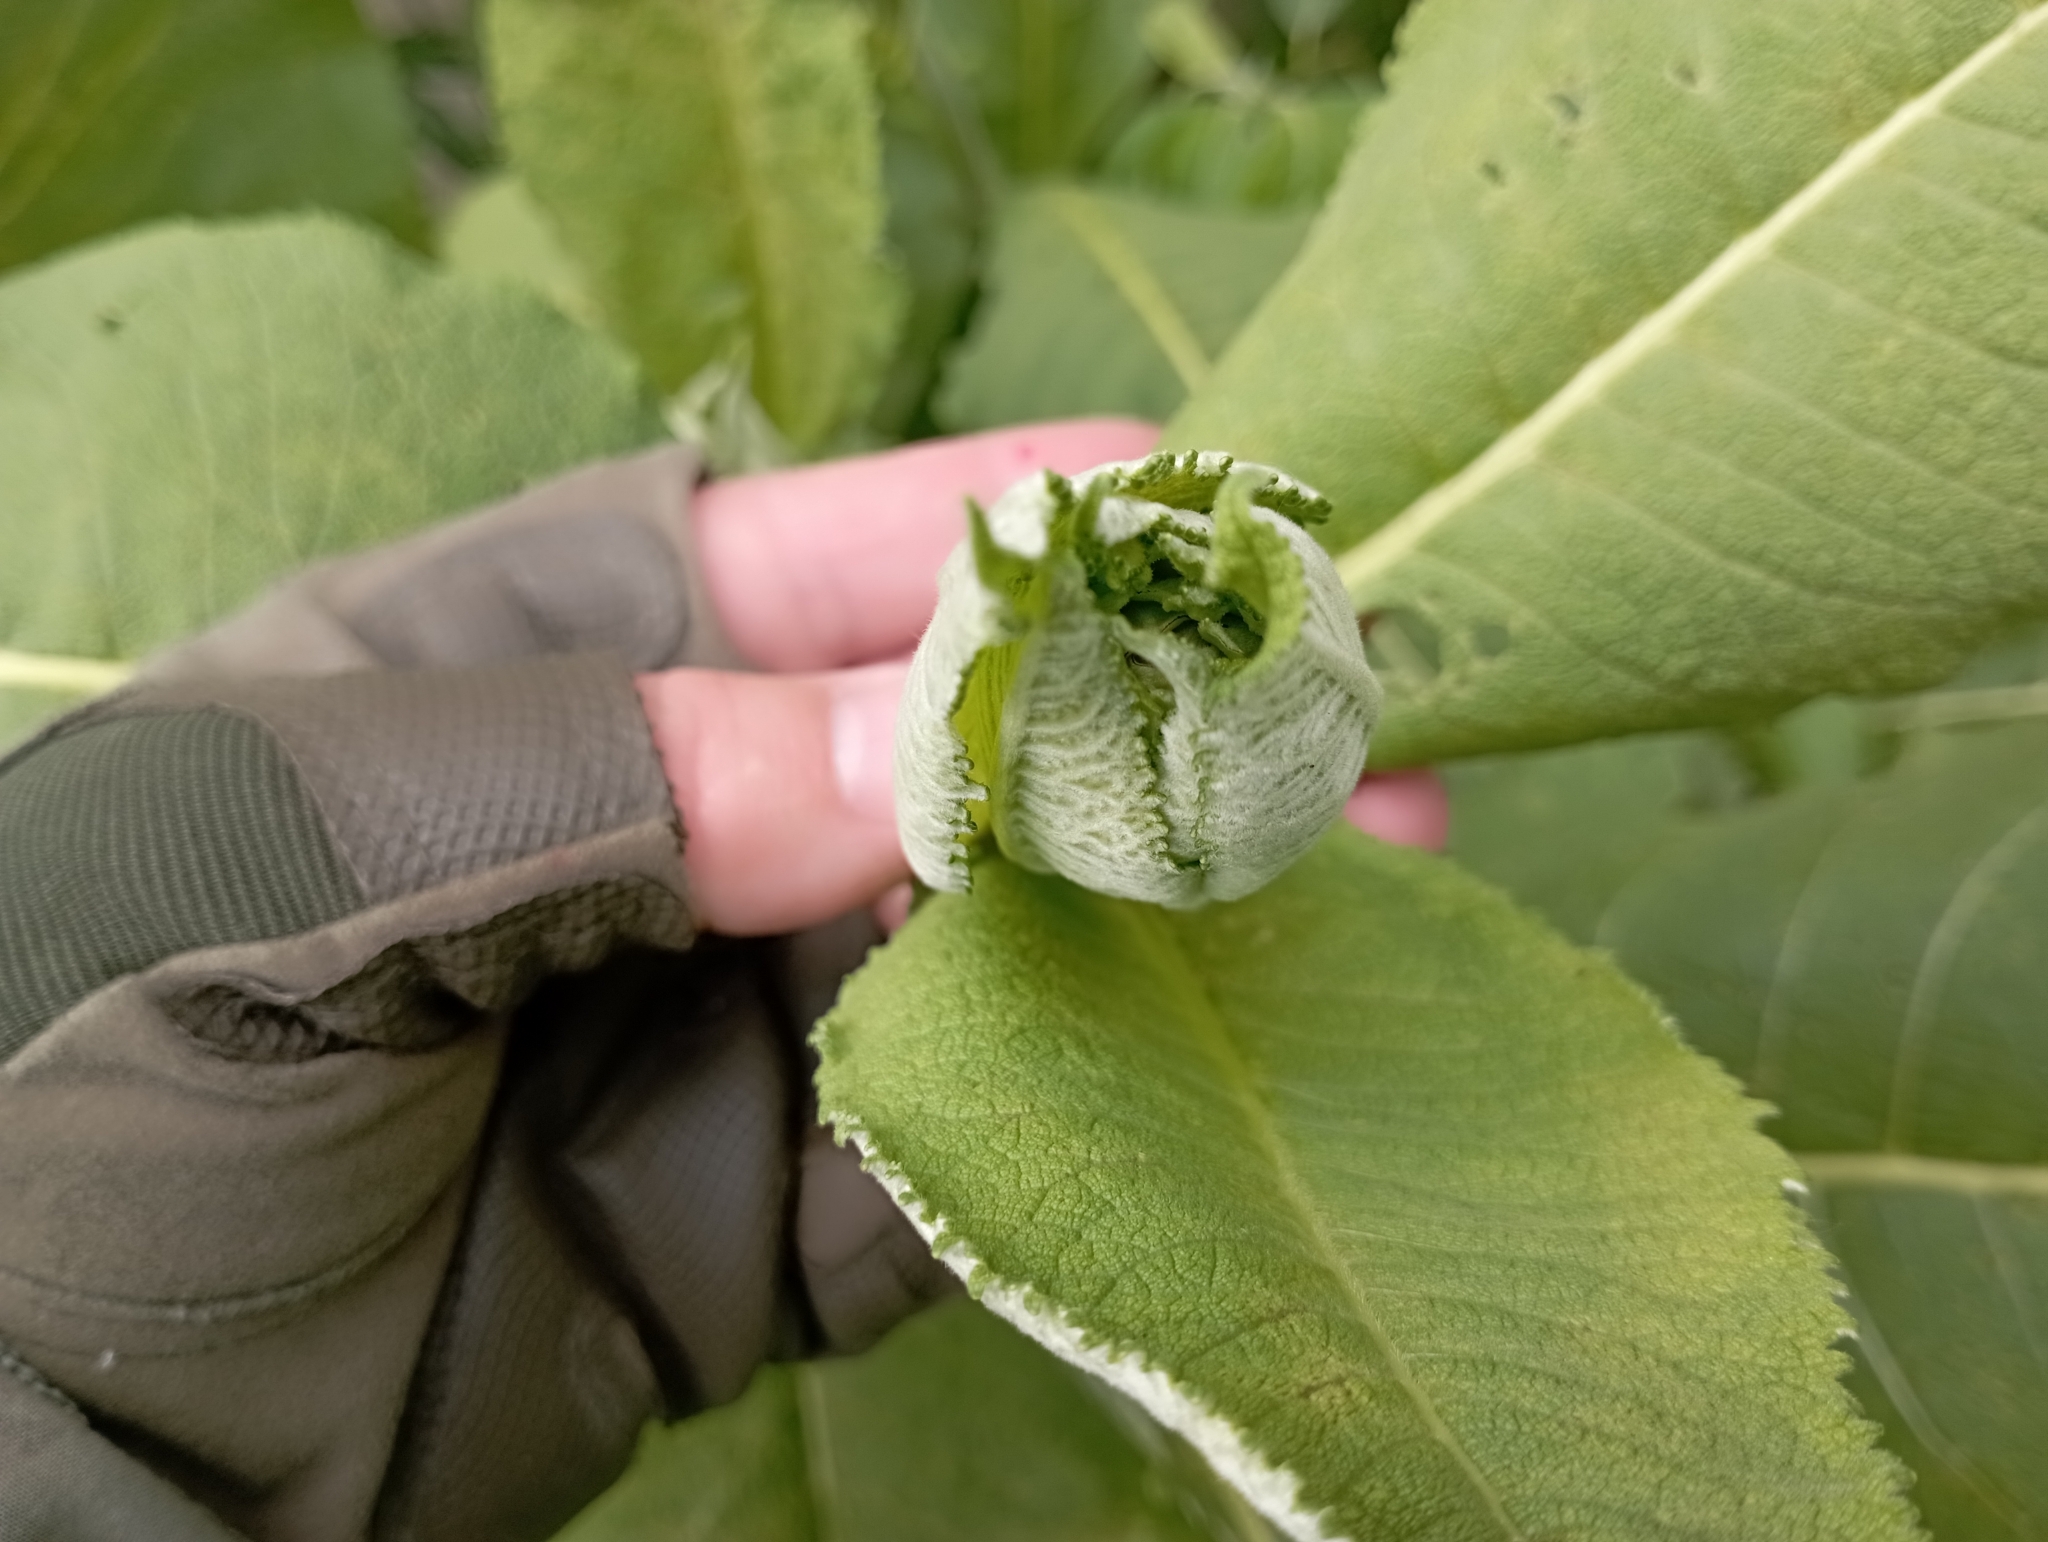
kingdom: Plantae
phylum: Tracheophyta
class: Magnoliopsida
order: Asterales
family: Asteraceae
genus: Inula
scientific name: Inula helenium
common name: Elecampane
